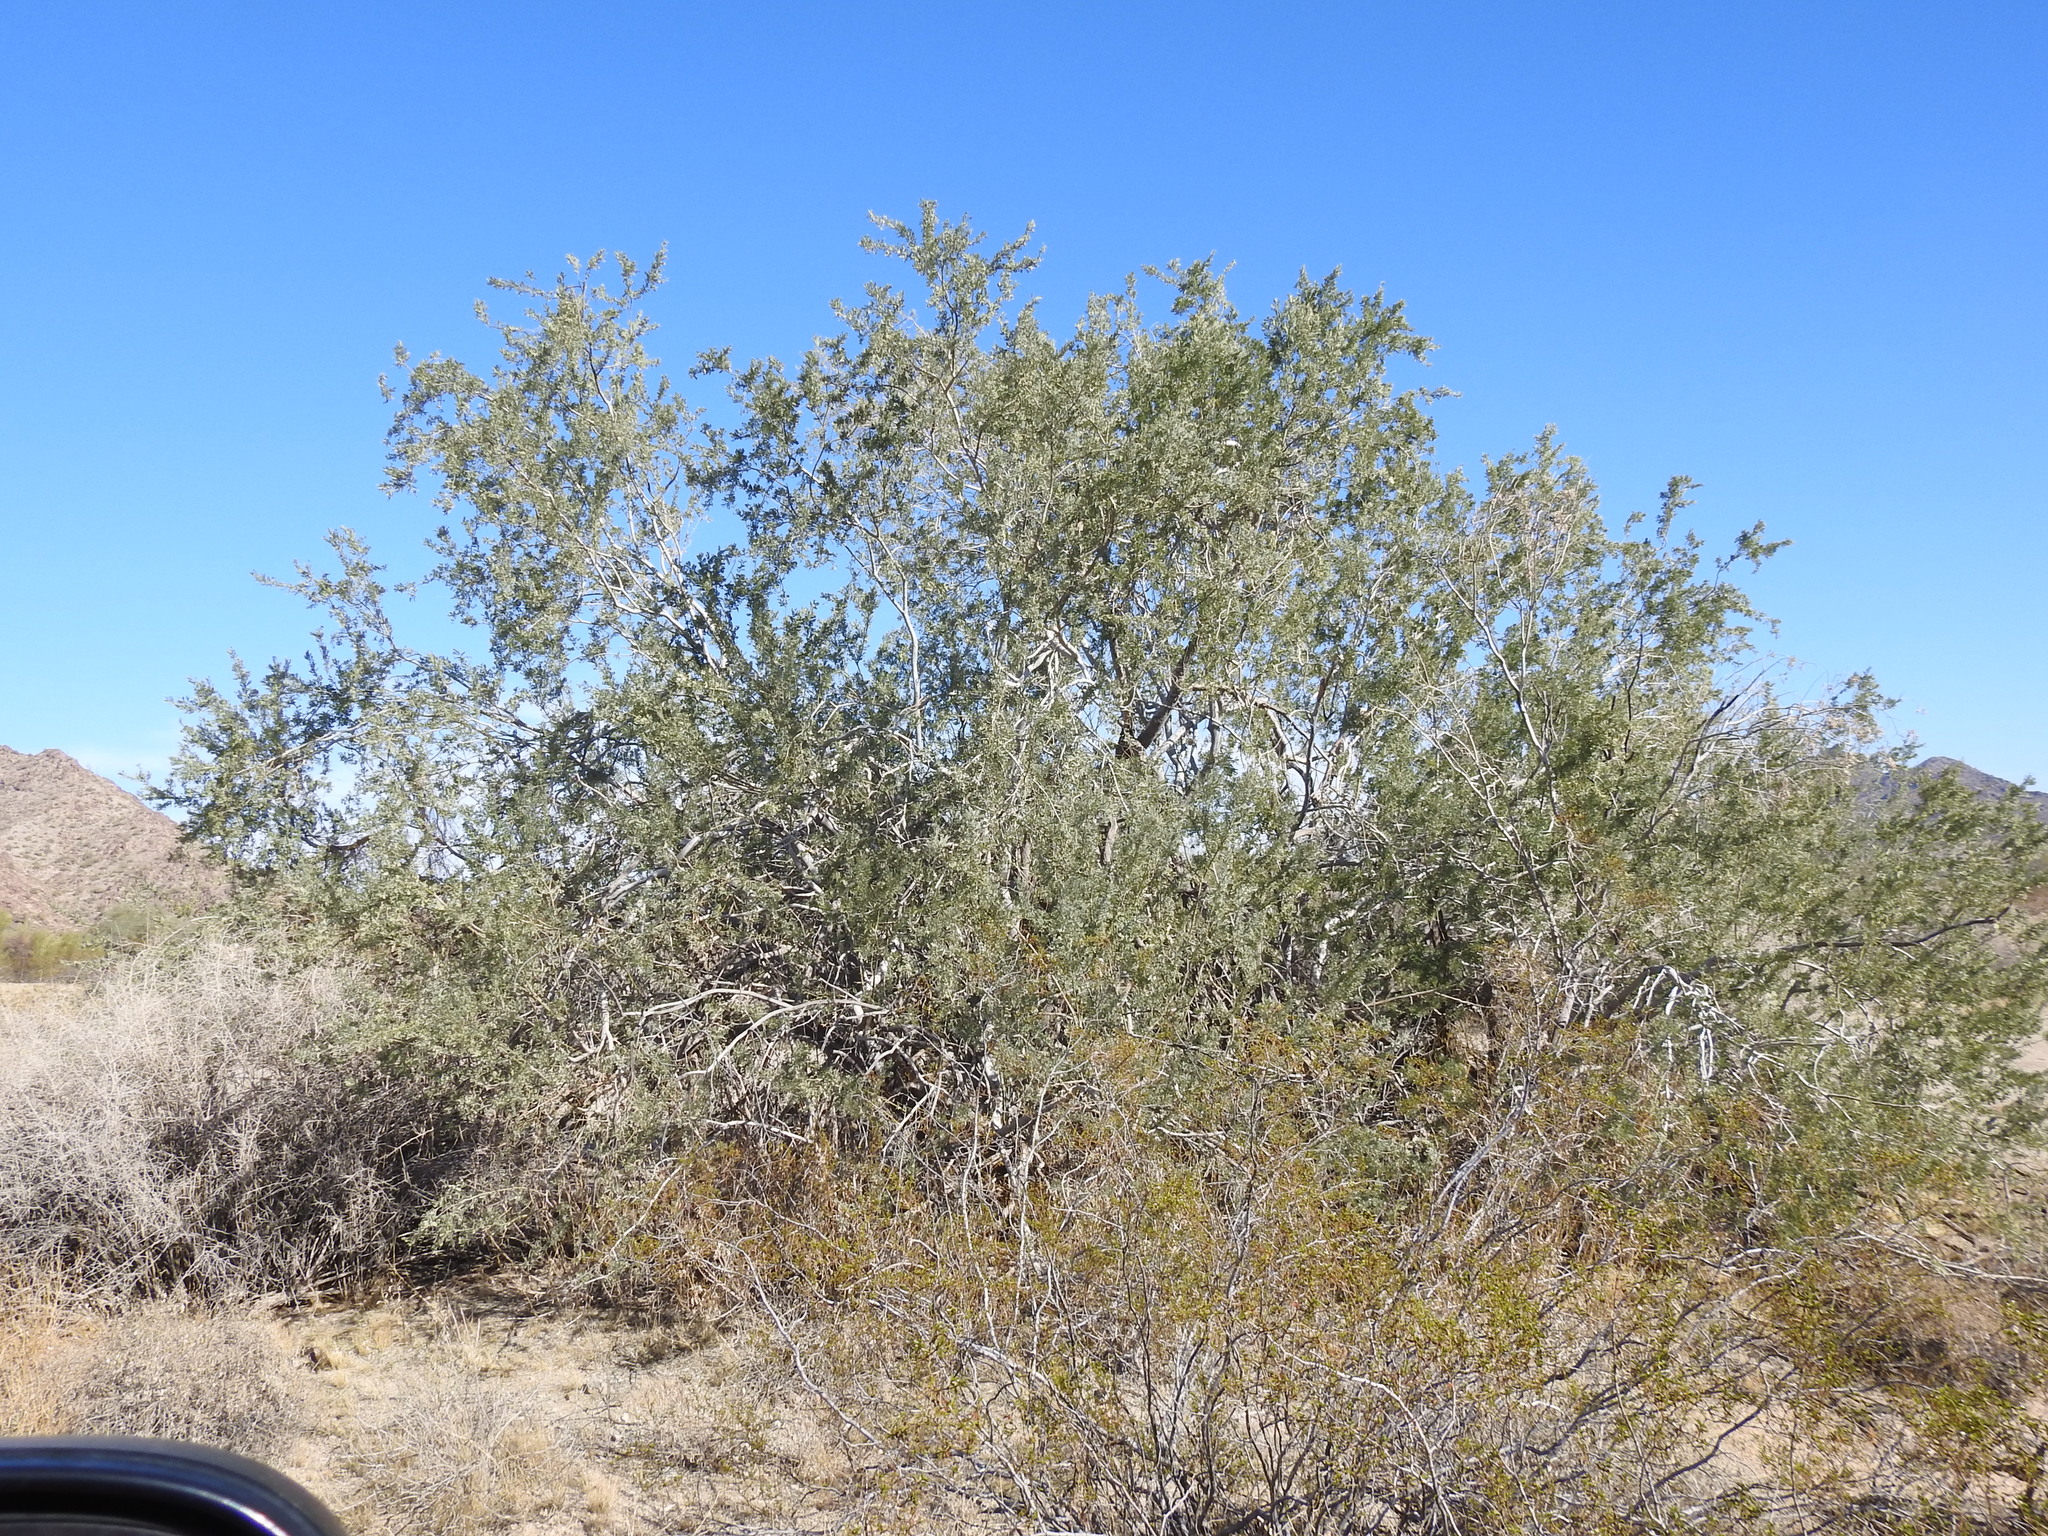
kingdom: Plantae
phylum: Tracheophyta
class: Magnoliopsida
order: Fabales
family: Fabaceae
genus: Olneya
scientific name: Olneya tesota
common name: Desert ironwood
